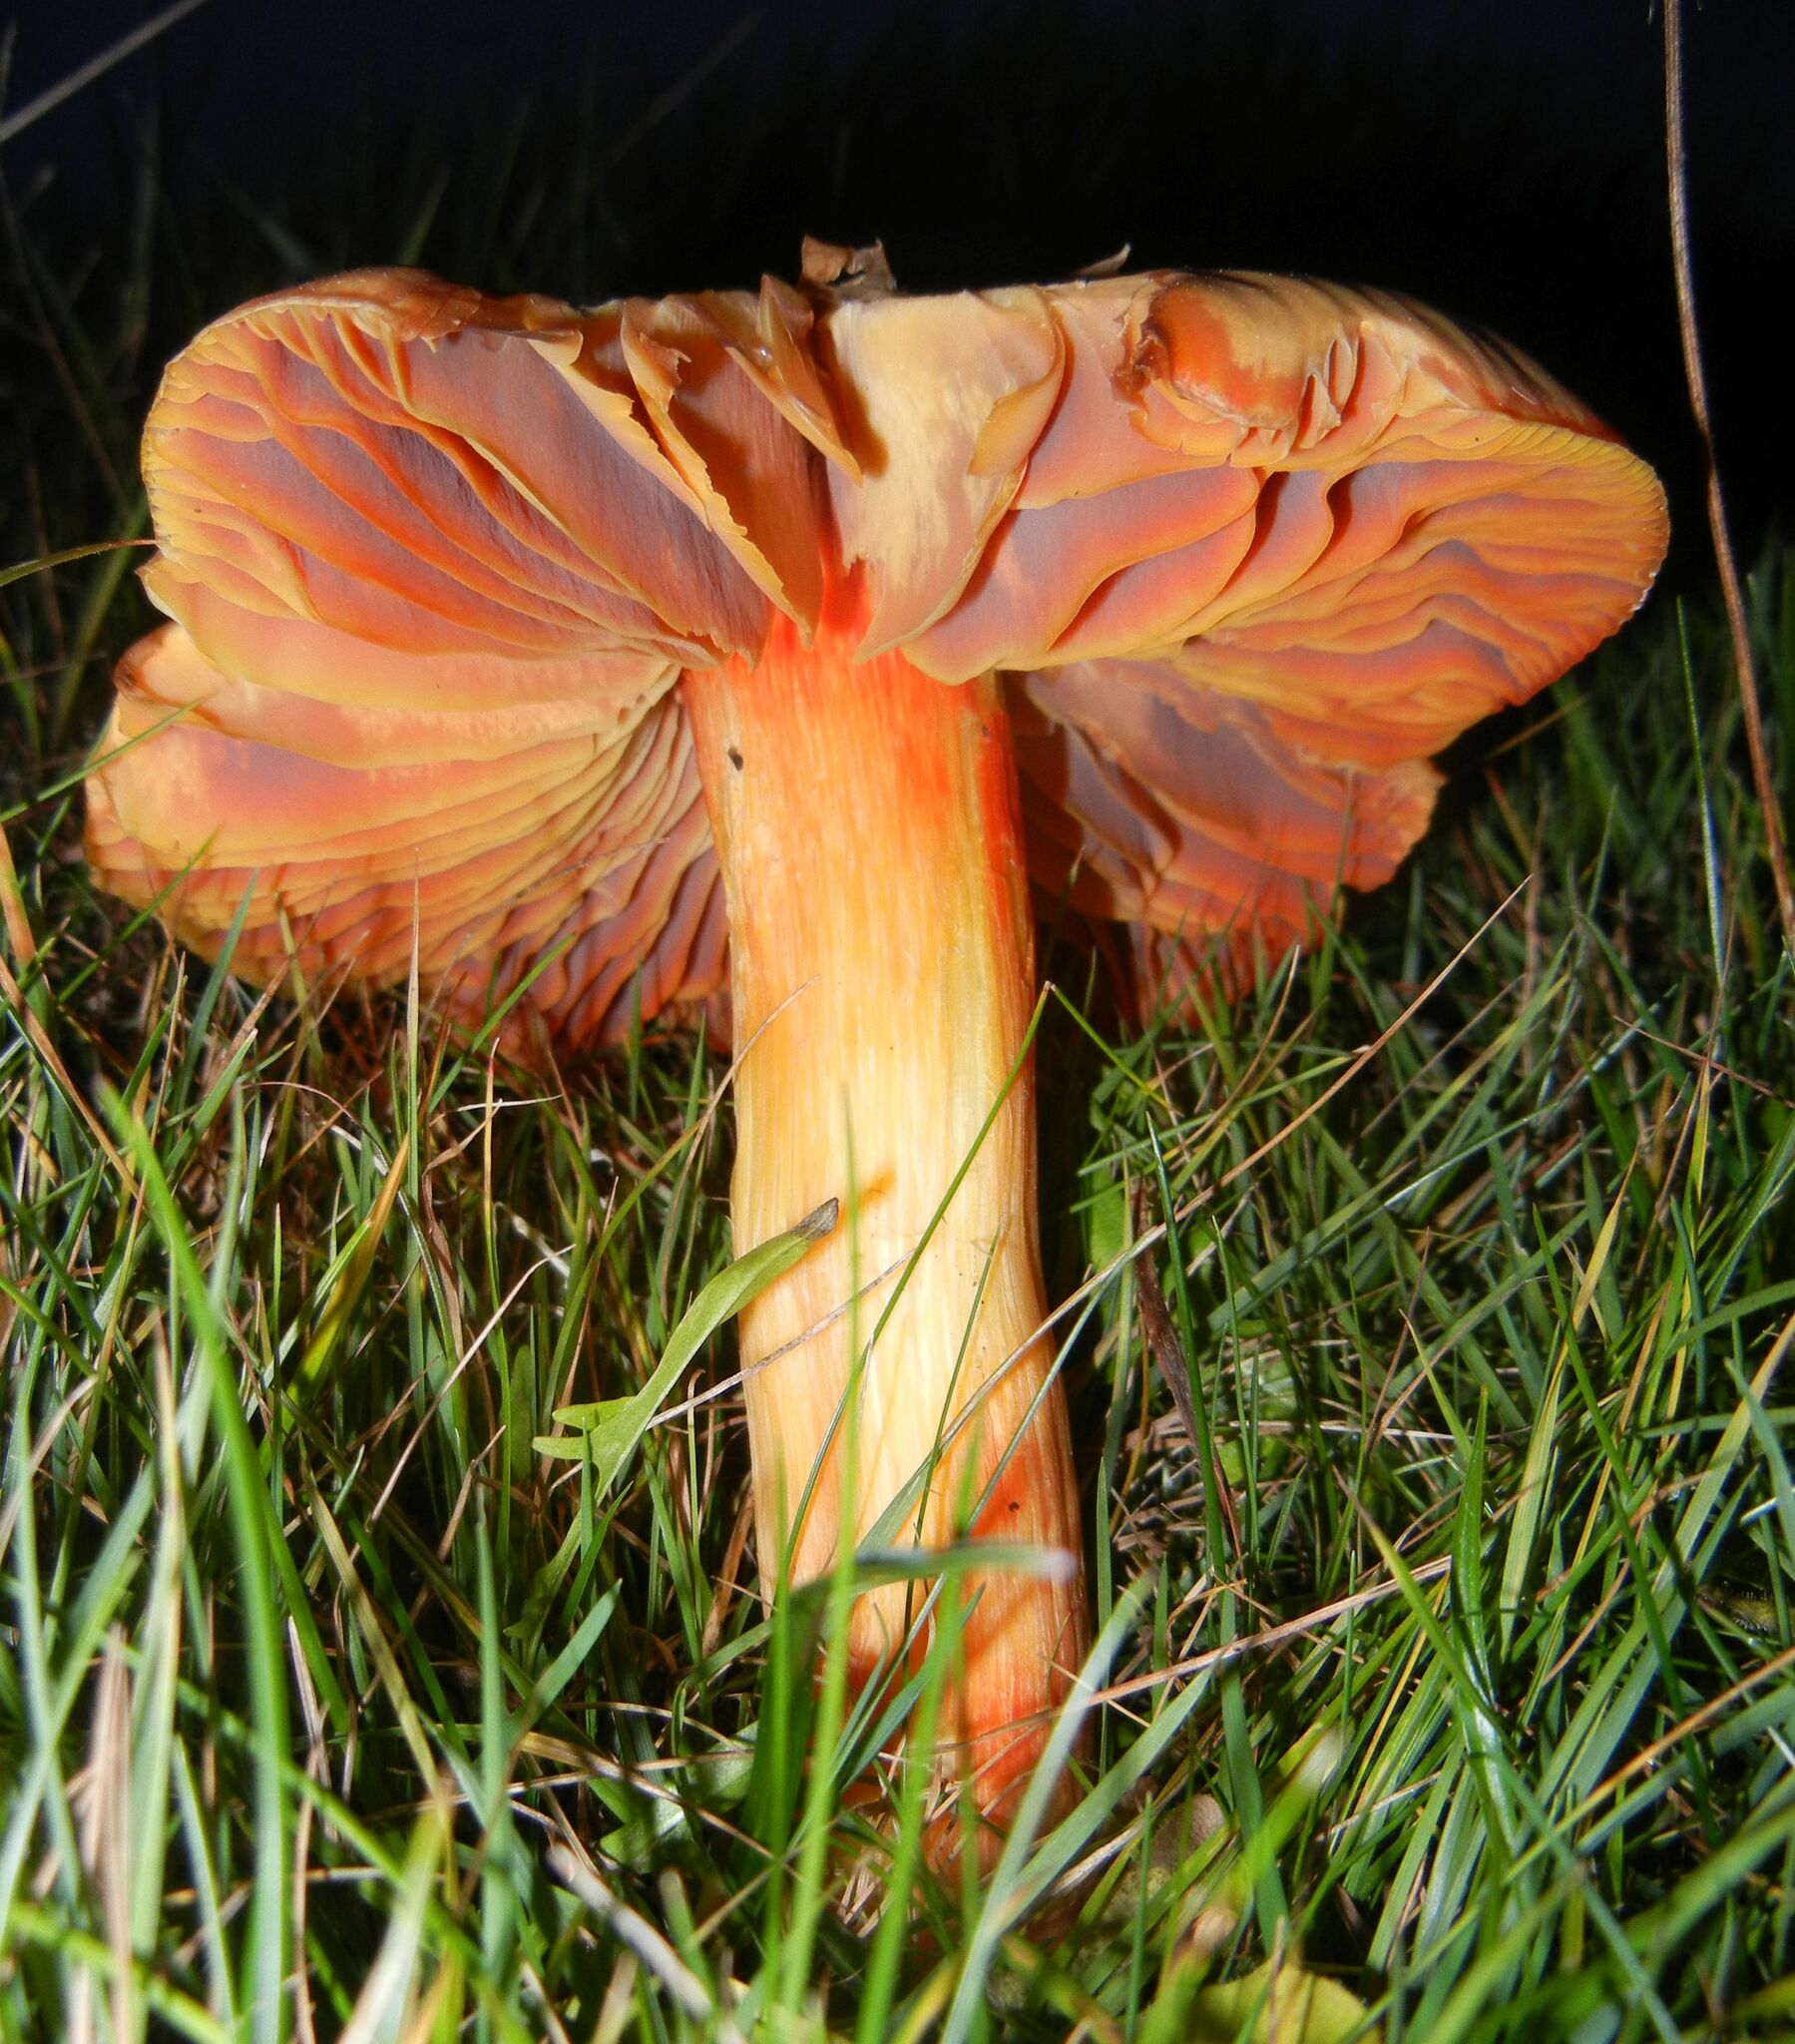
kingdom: Fungi
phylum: Basidiomycota
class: Agaricomycetes
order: Agaricales
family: Hygrophoraceae
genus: Hygrocybe
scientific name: Hygrocybe punicea
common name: Crimson waxcap
